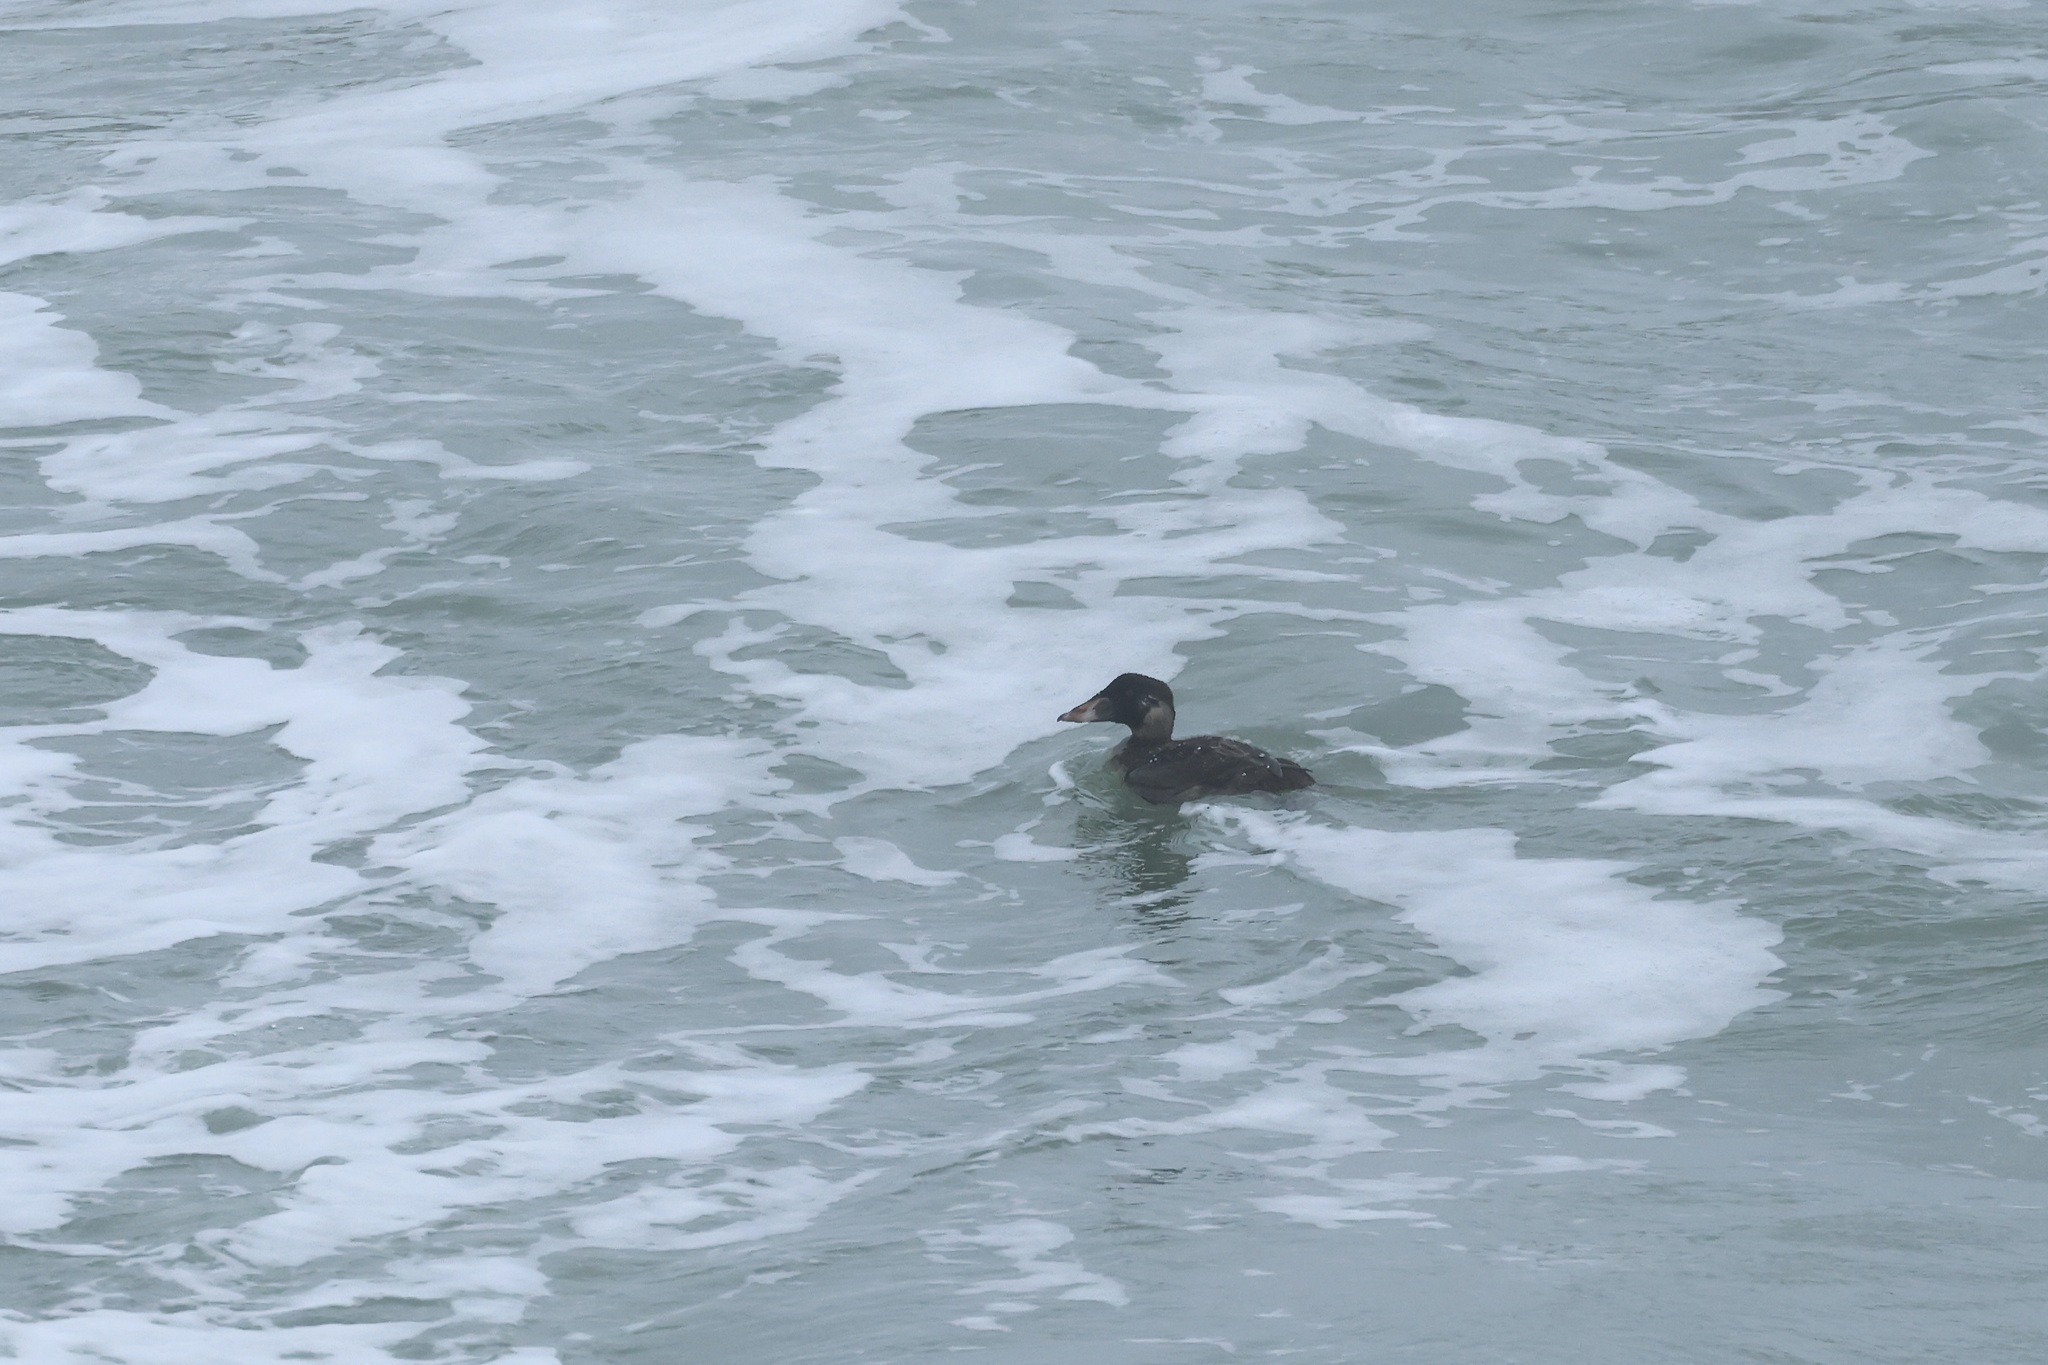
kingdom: Animalia
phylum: Chordata
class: Aves
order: Anseriformes
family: Anatidae
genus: Melanitta
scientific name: Melanitta perspicillata
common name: Surf scoter
